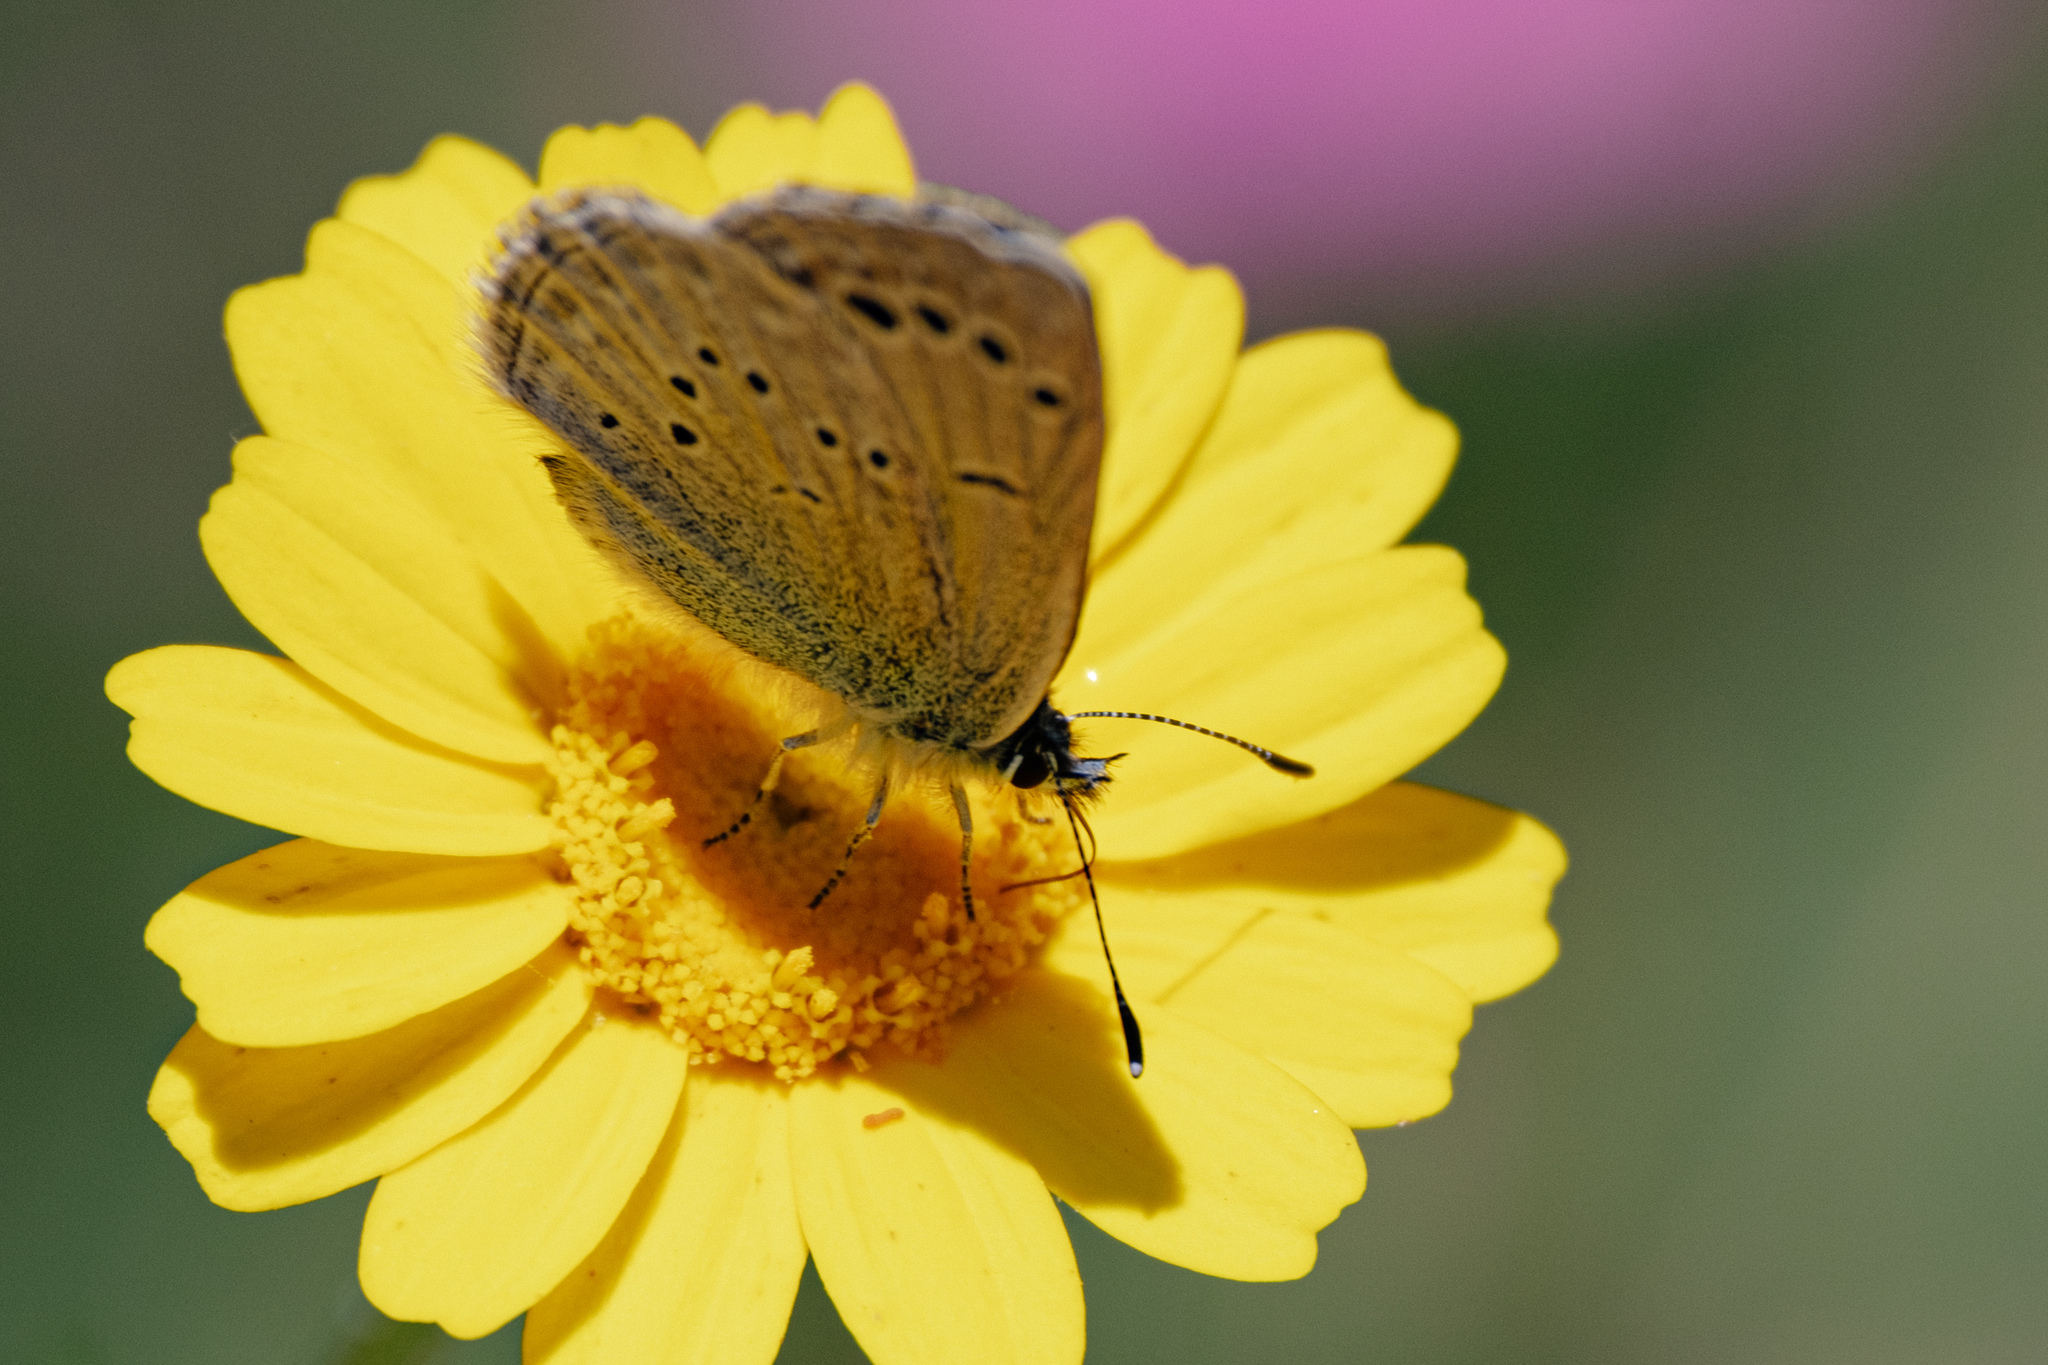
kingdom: Animalia
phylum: Arthropoda
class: Insecta
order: Lepidoptera
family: Lycaenidae
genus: Glaucopsyche
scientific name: Glaucopsyche melanops
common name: Black-eyed blue
